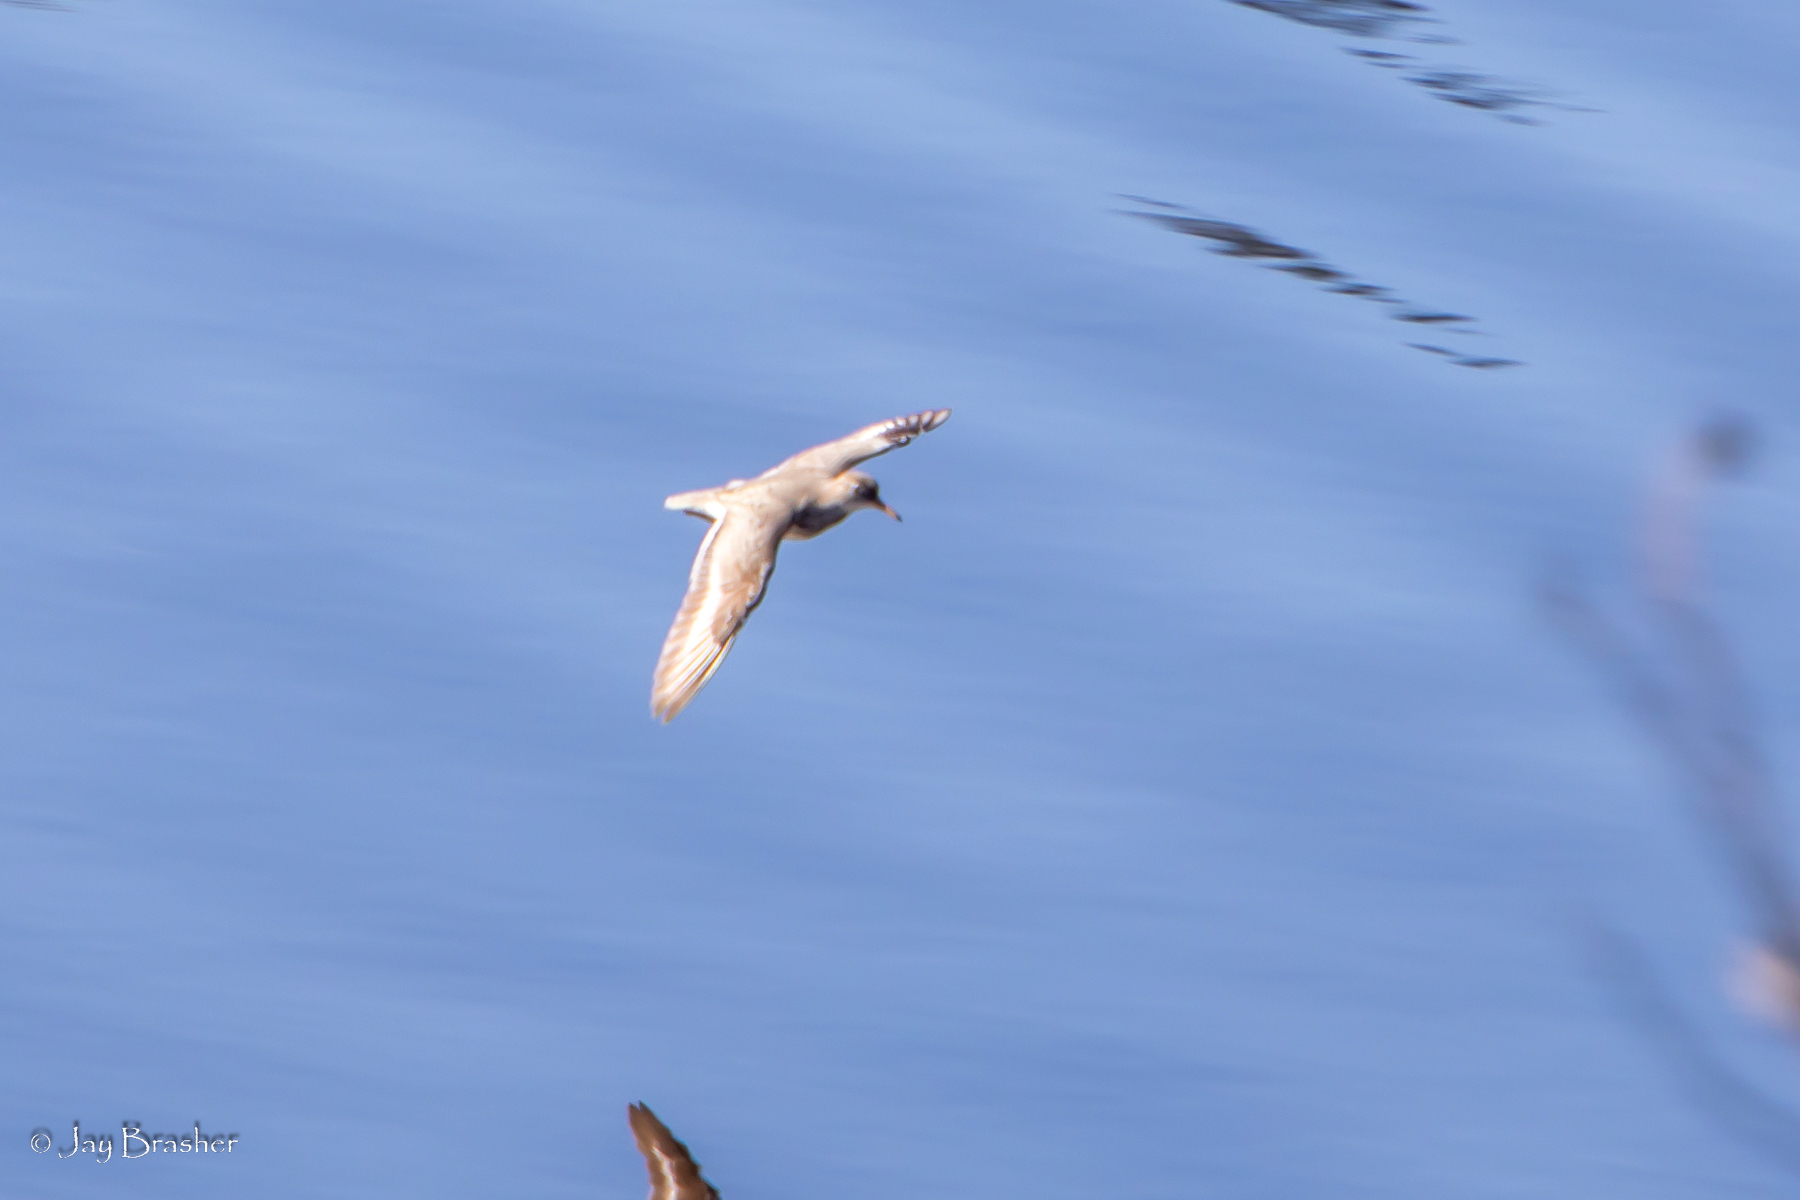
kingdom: Animalia
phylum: Chordata
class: Aves
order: Charadriiformes
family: Scolopacidae
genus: Actitis
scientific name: Actitis macularius
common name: Spotted sandpiper
